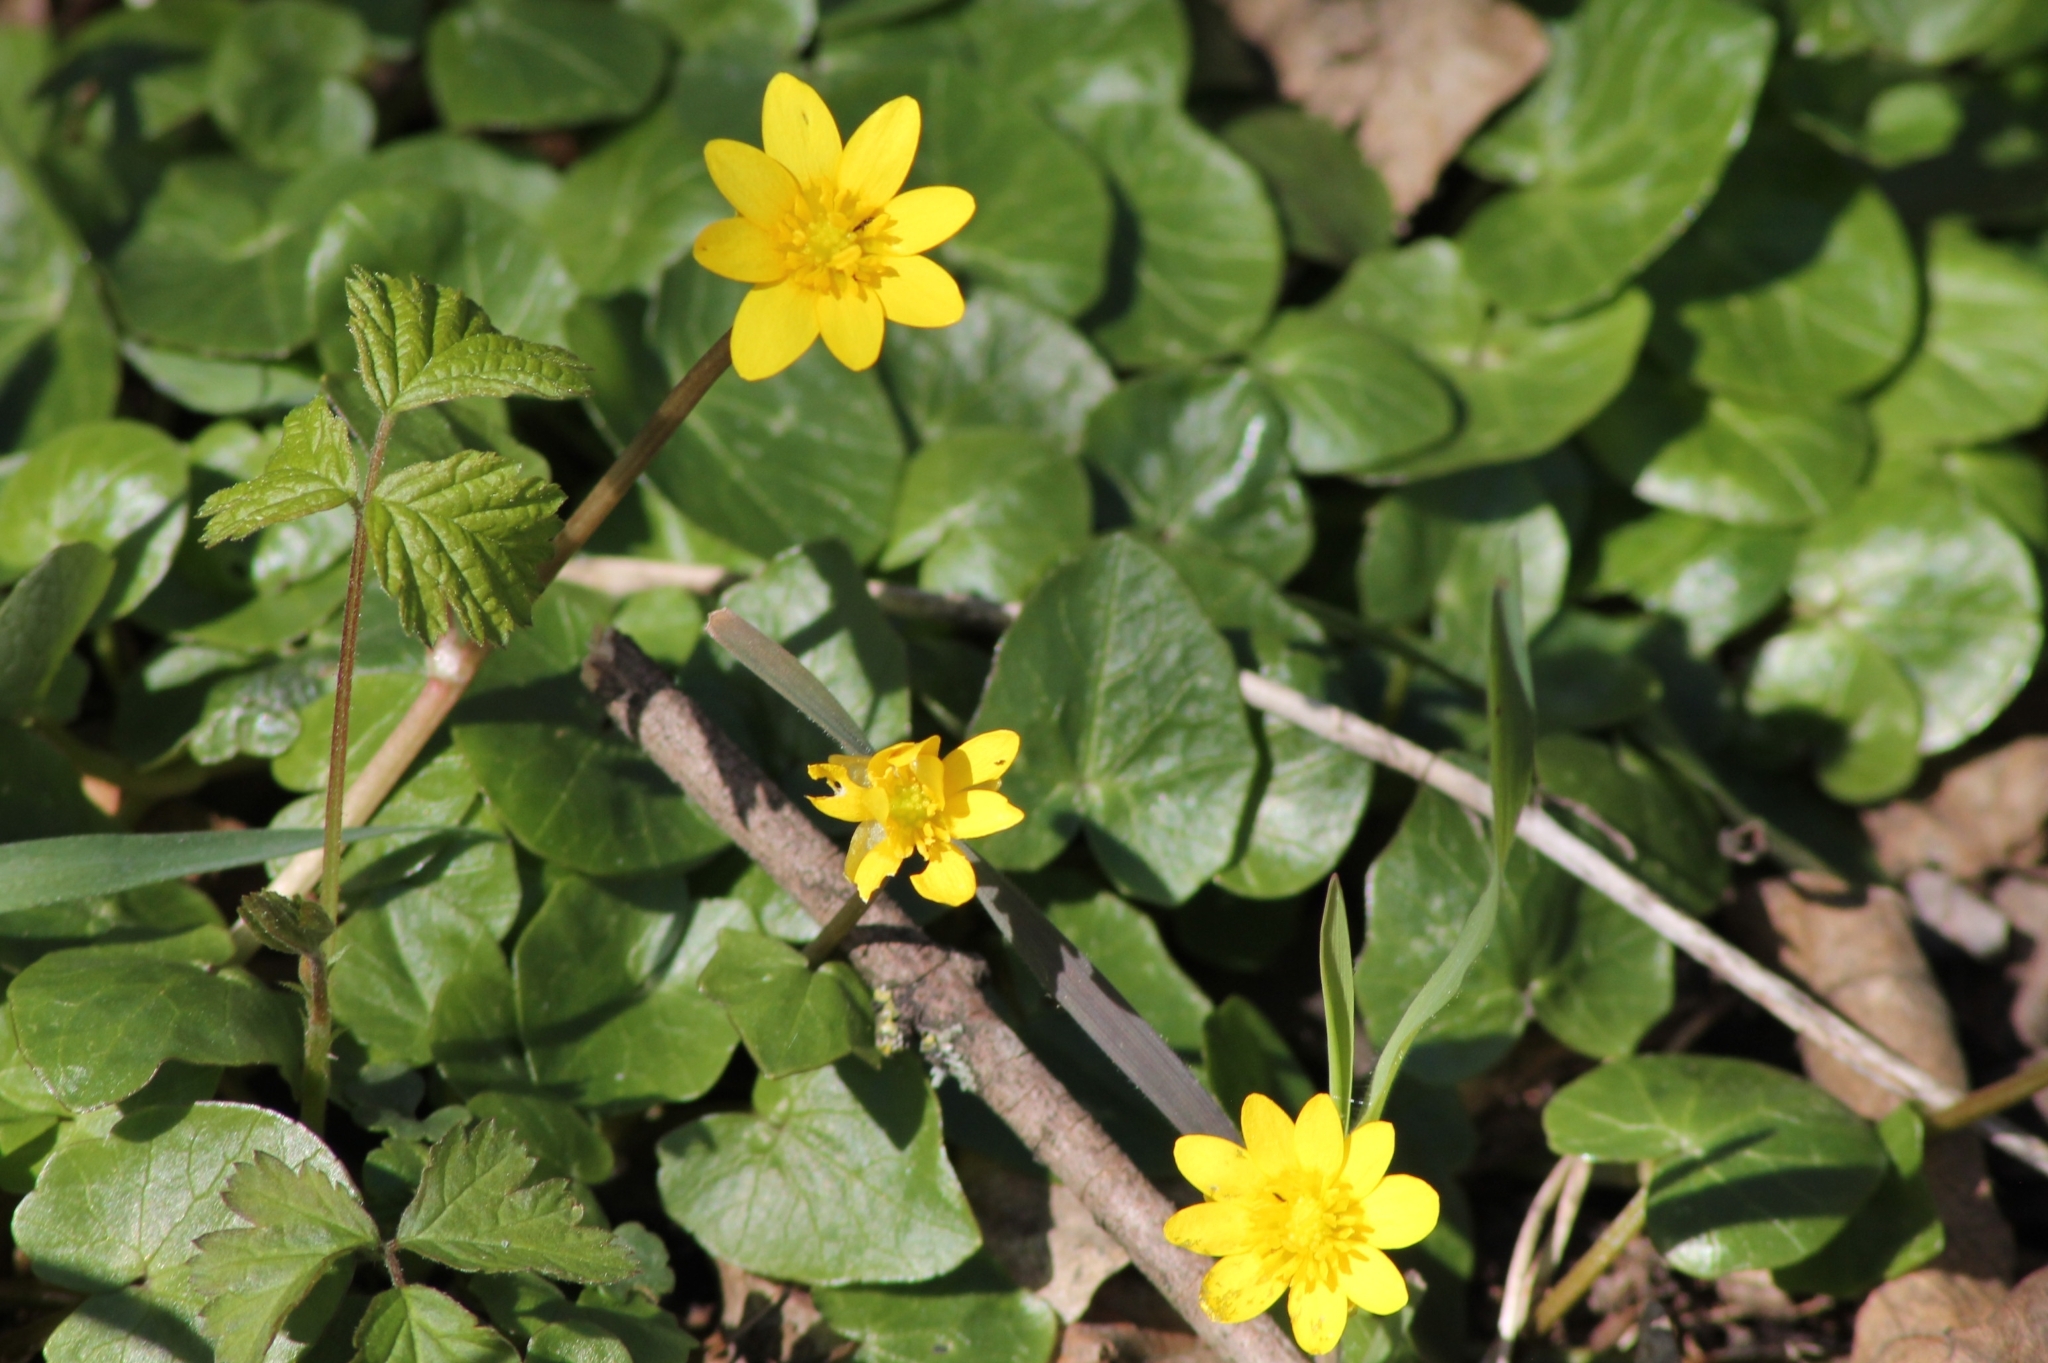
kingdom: Plantae
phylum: Tracheophyta
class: Magnoliopsida
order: Ranunculales
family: Ranunculaceae
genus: Ficaria
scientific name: Ficaria verna
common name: Lesser celandine
